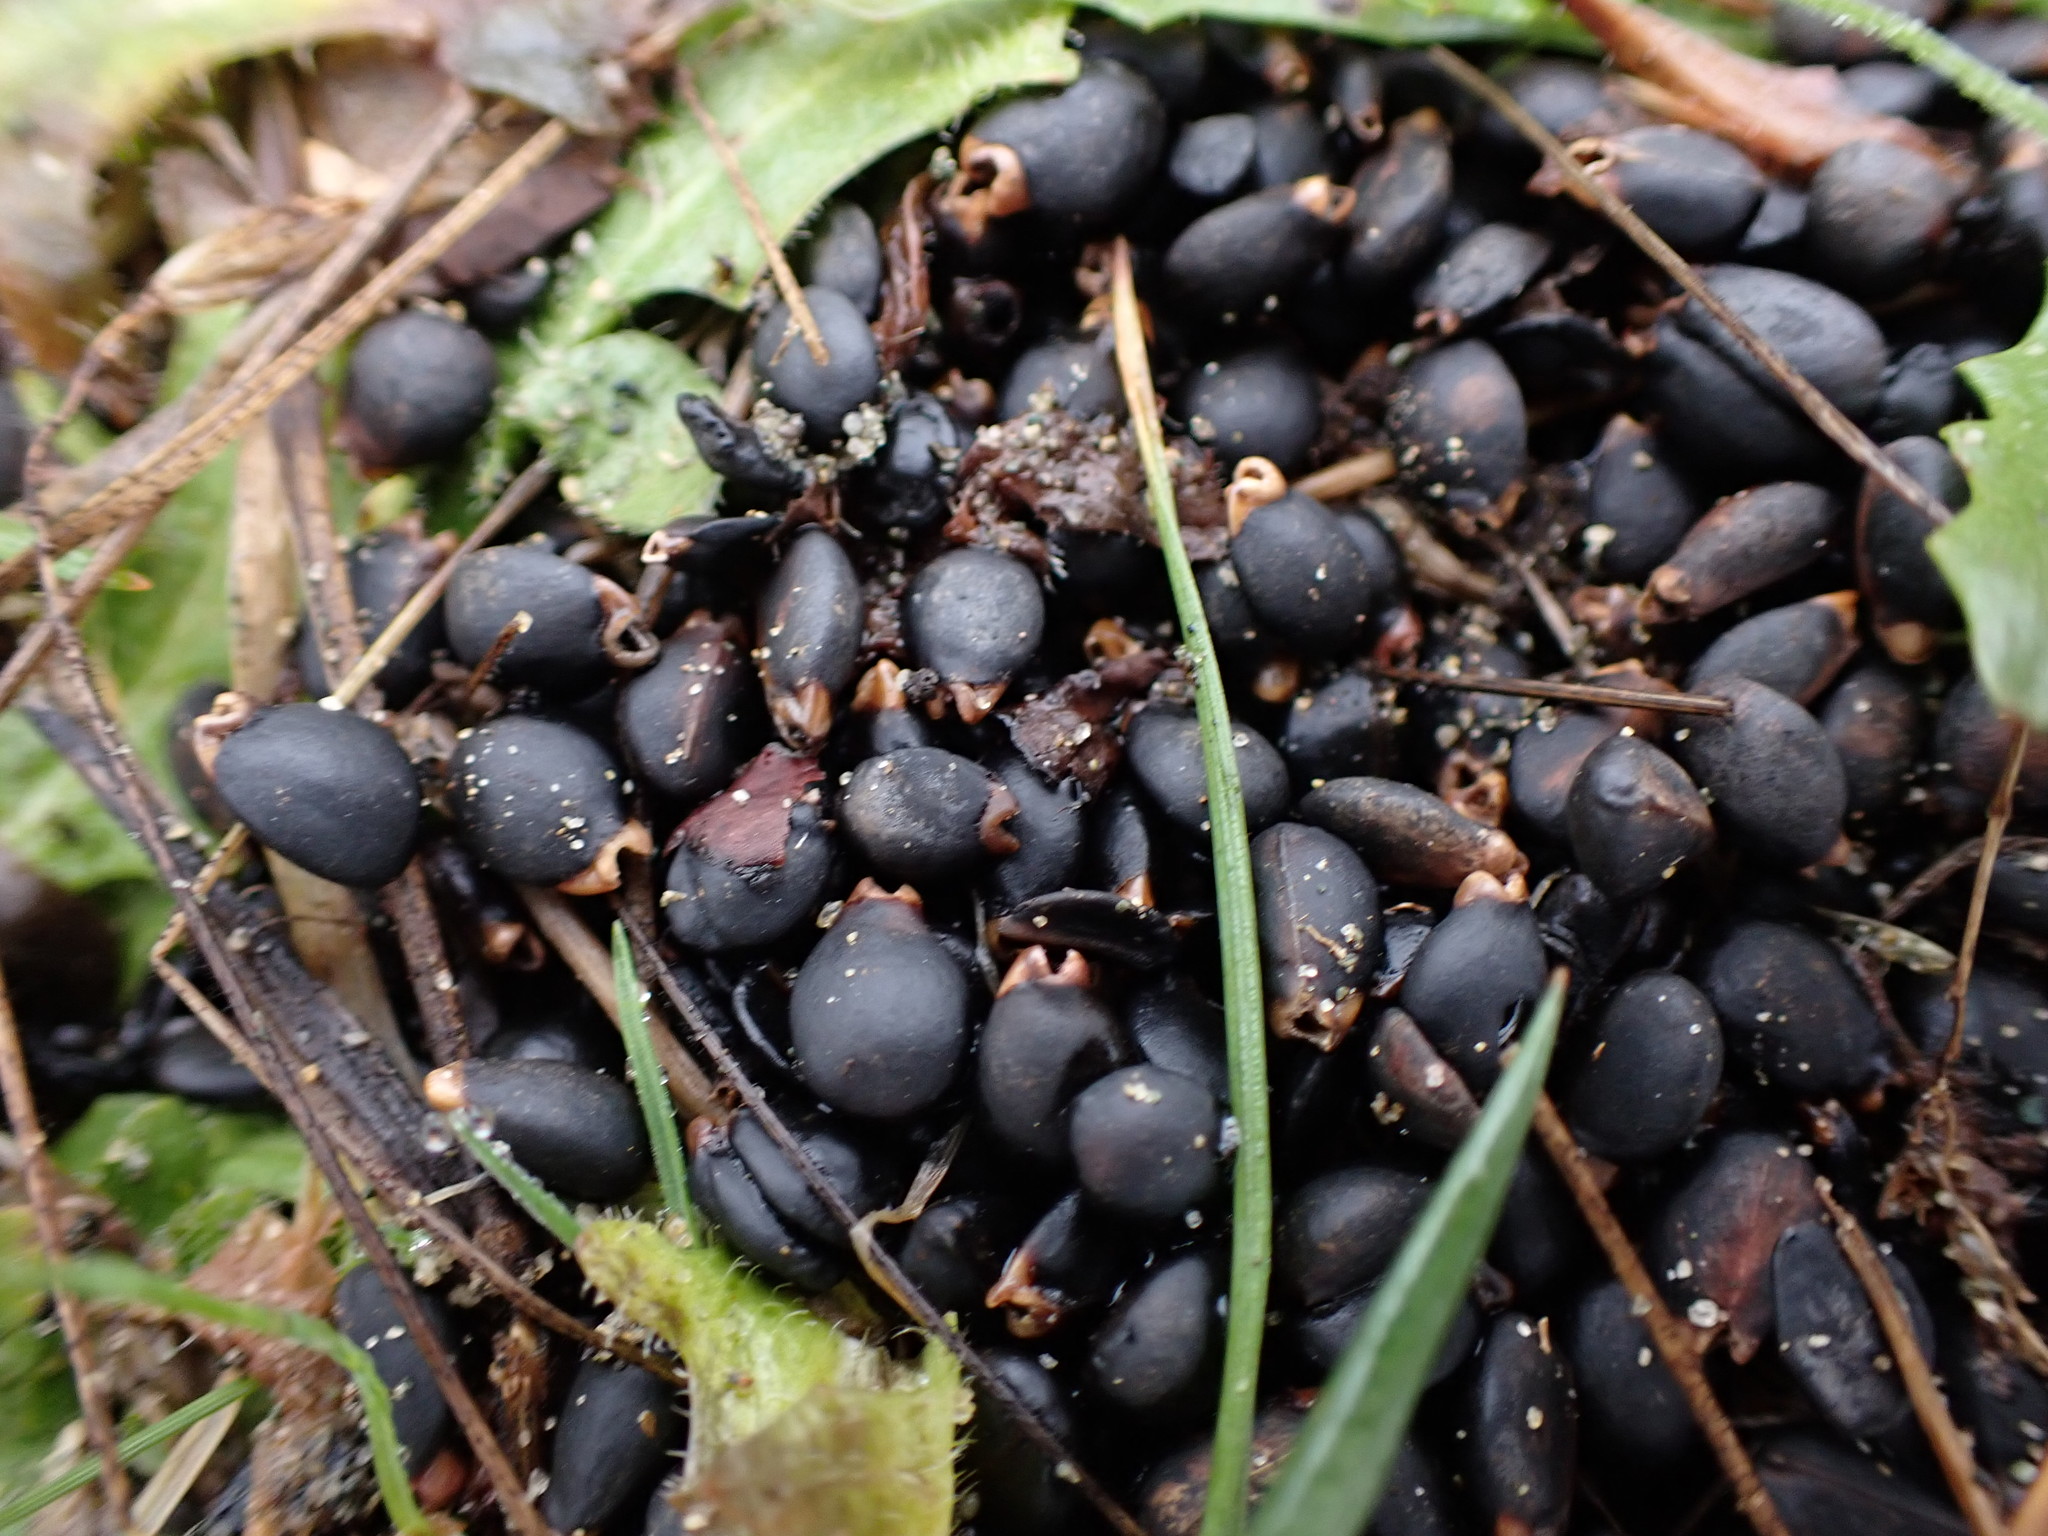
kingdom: Animalia
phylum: Chordata
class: Mammalia
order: Carnivora
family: Ursidae
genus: Ursus
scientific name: Ursus americanus
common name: American black bear
